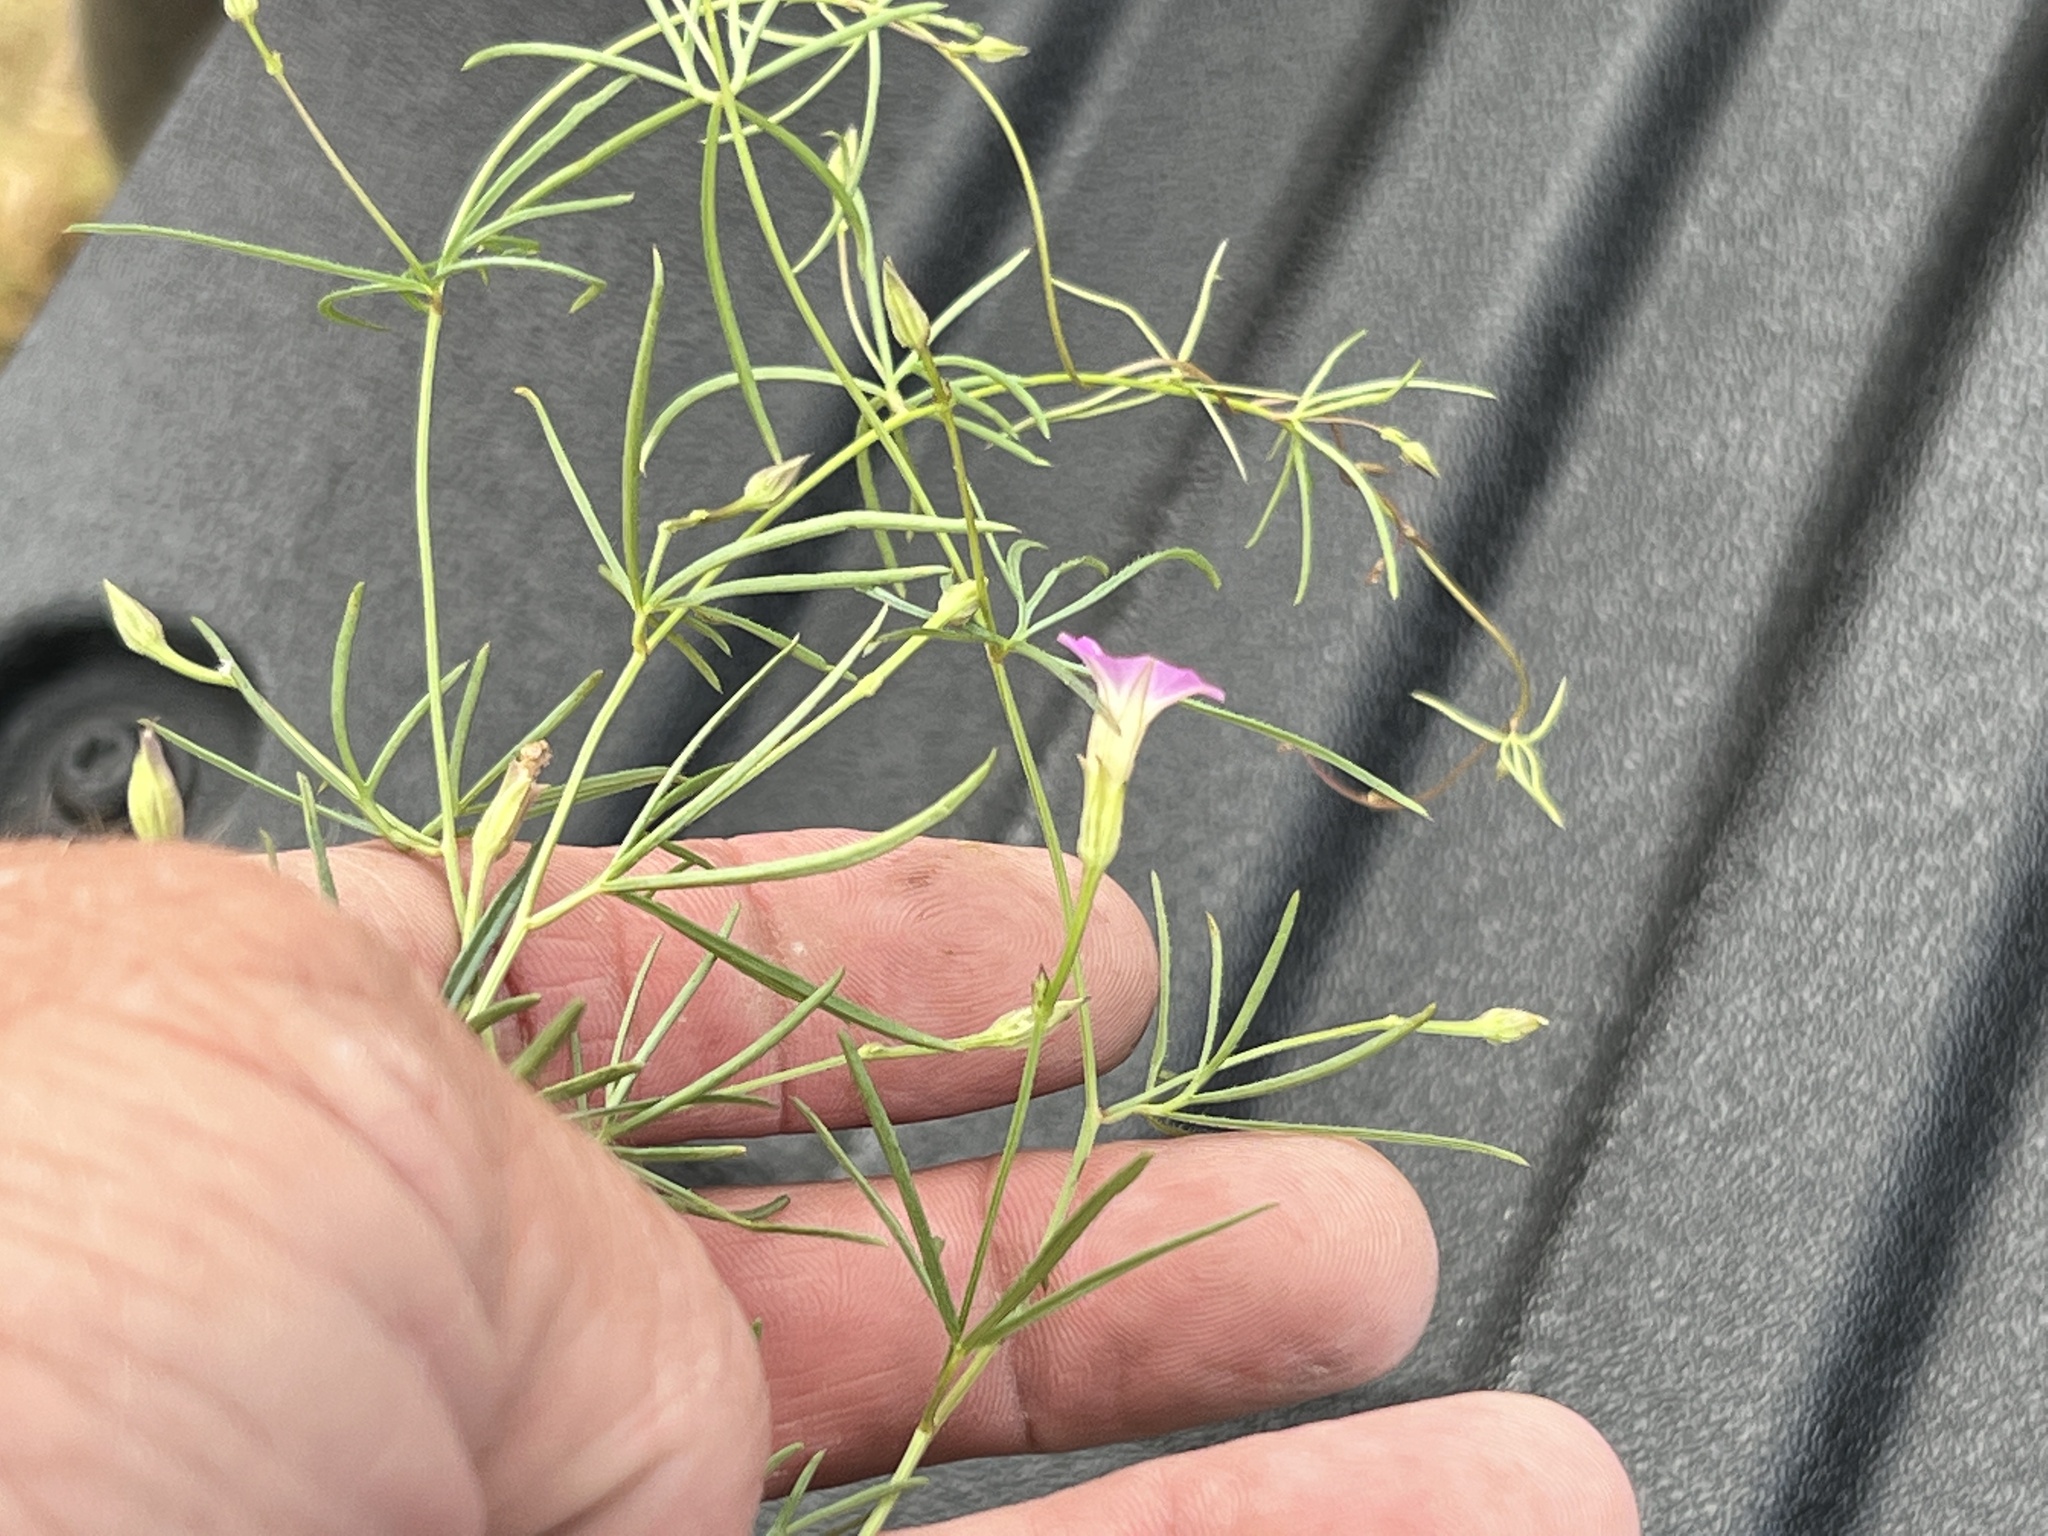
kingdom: Plantae
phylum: Tracheophyta
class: Magnoliopsida
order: Solanales
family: Convolvulaceae
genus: Ipomoea
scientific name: Ipomoea costellata
